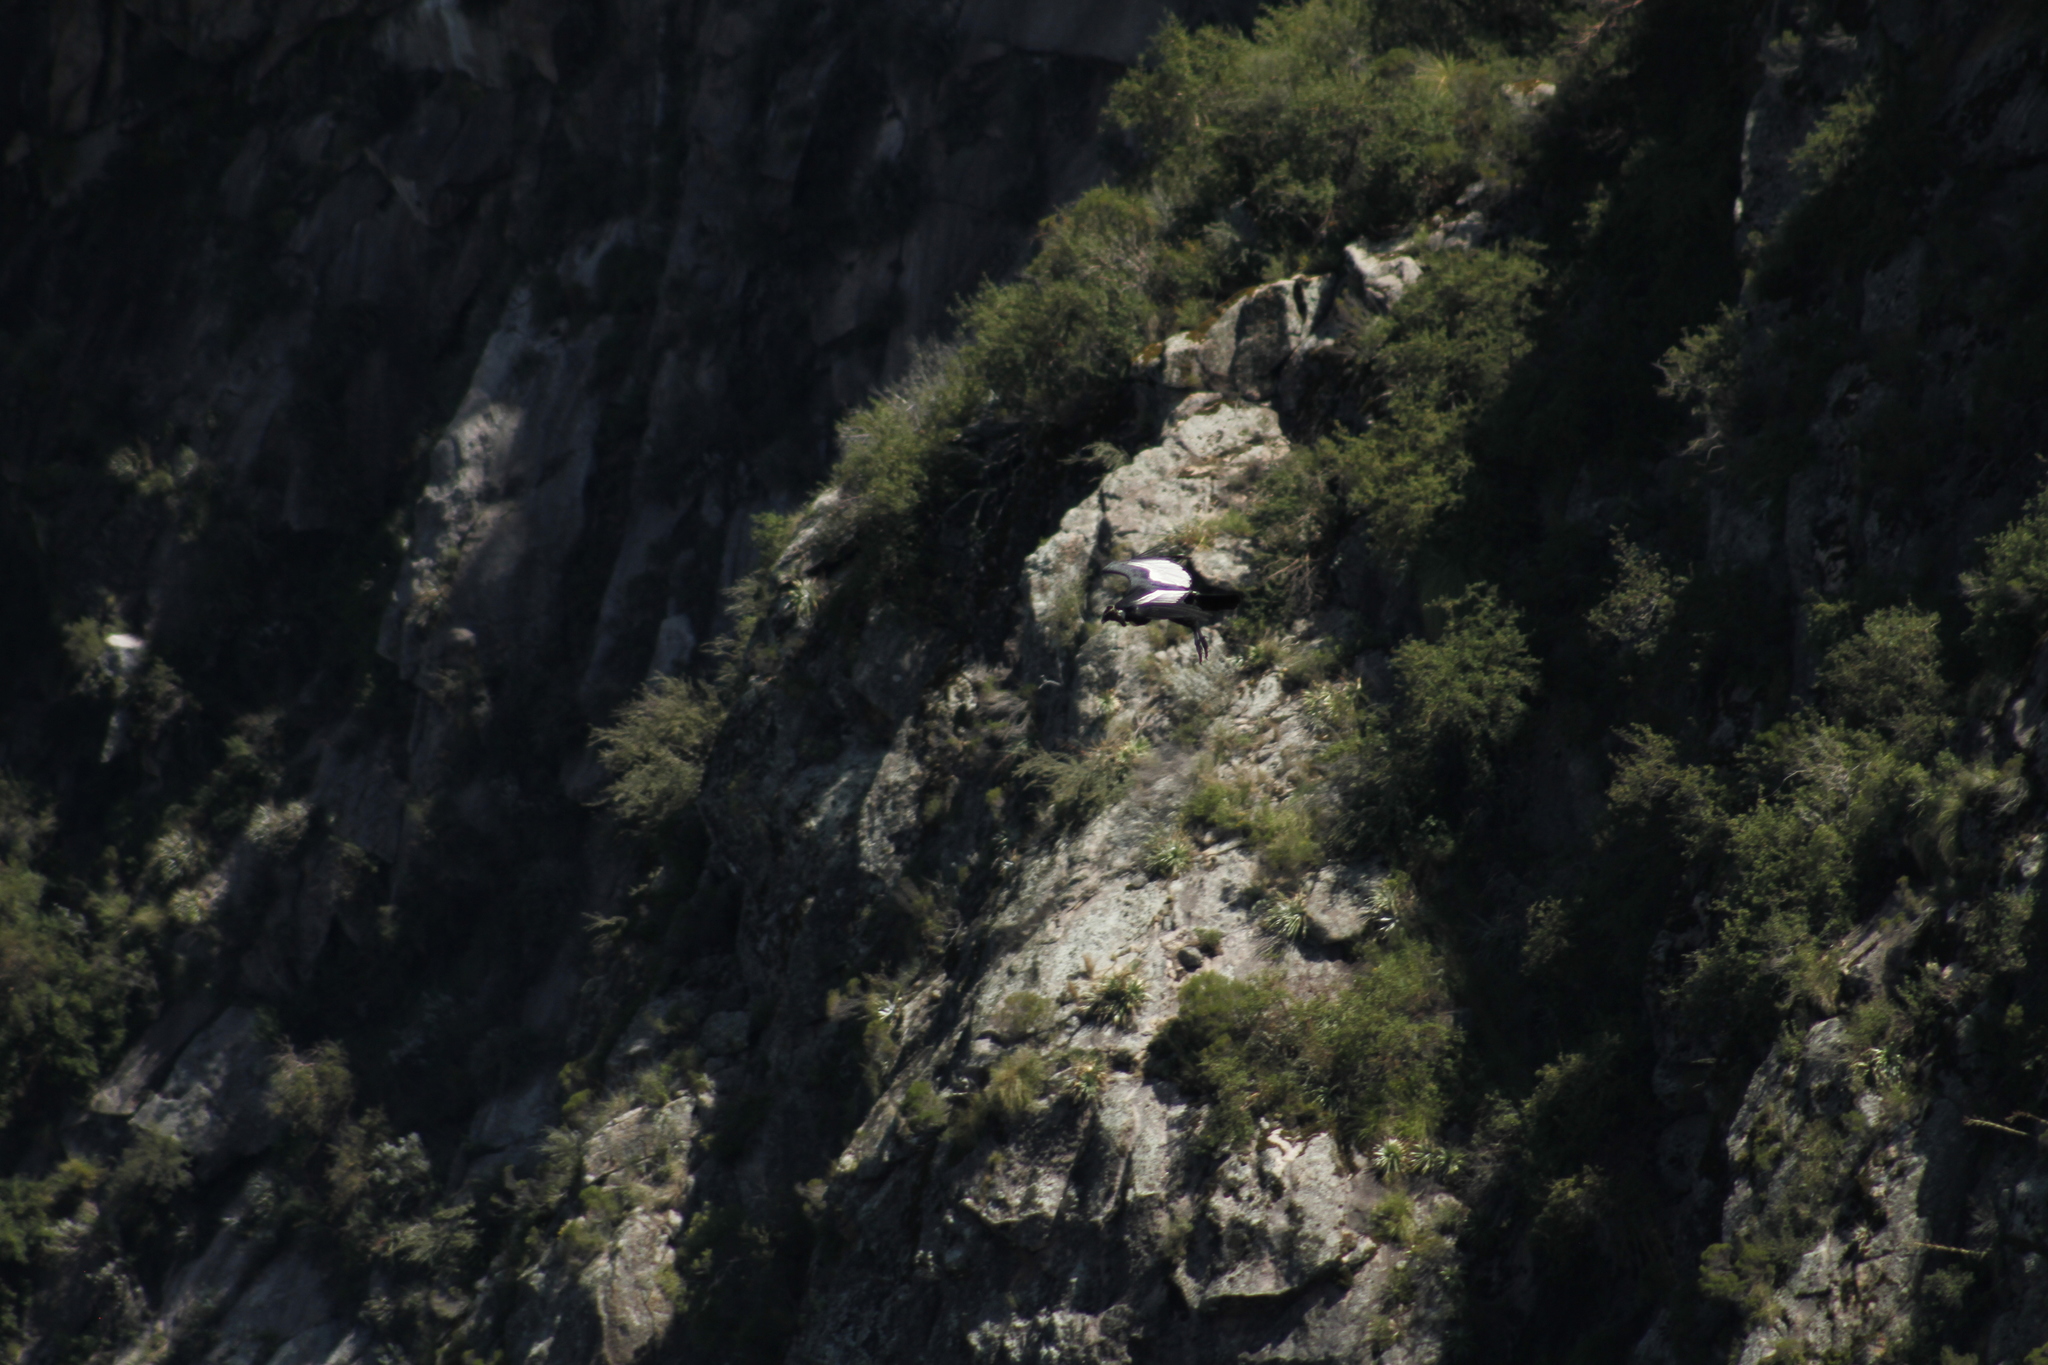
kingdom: Animalia
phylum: Chordata
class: Aves
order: Accipitriformes
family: Cathartidae
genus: Vultur
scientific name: Vultur gryphus
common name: Andean condor
